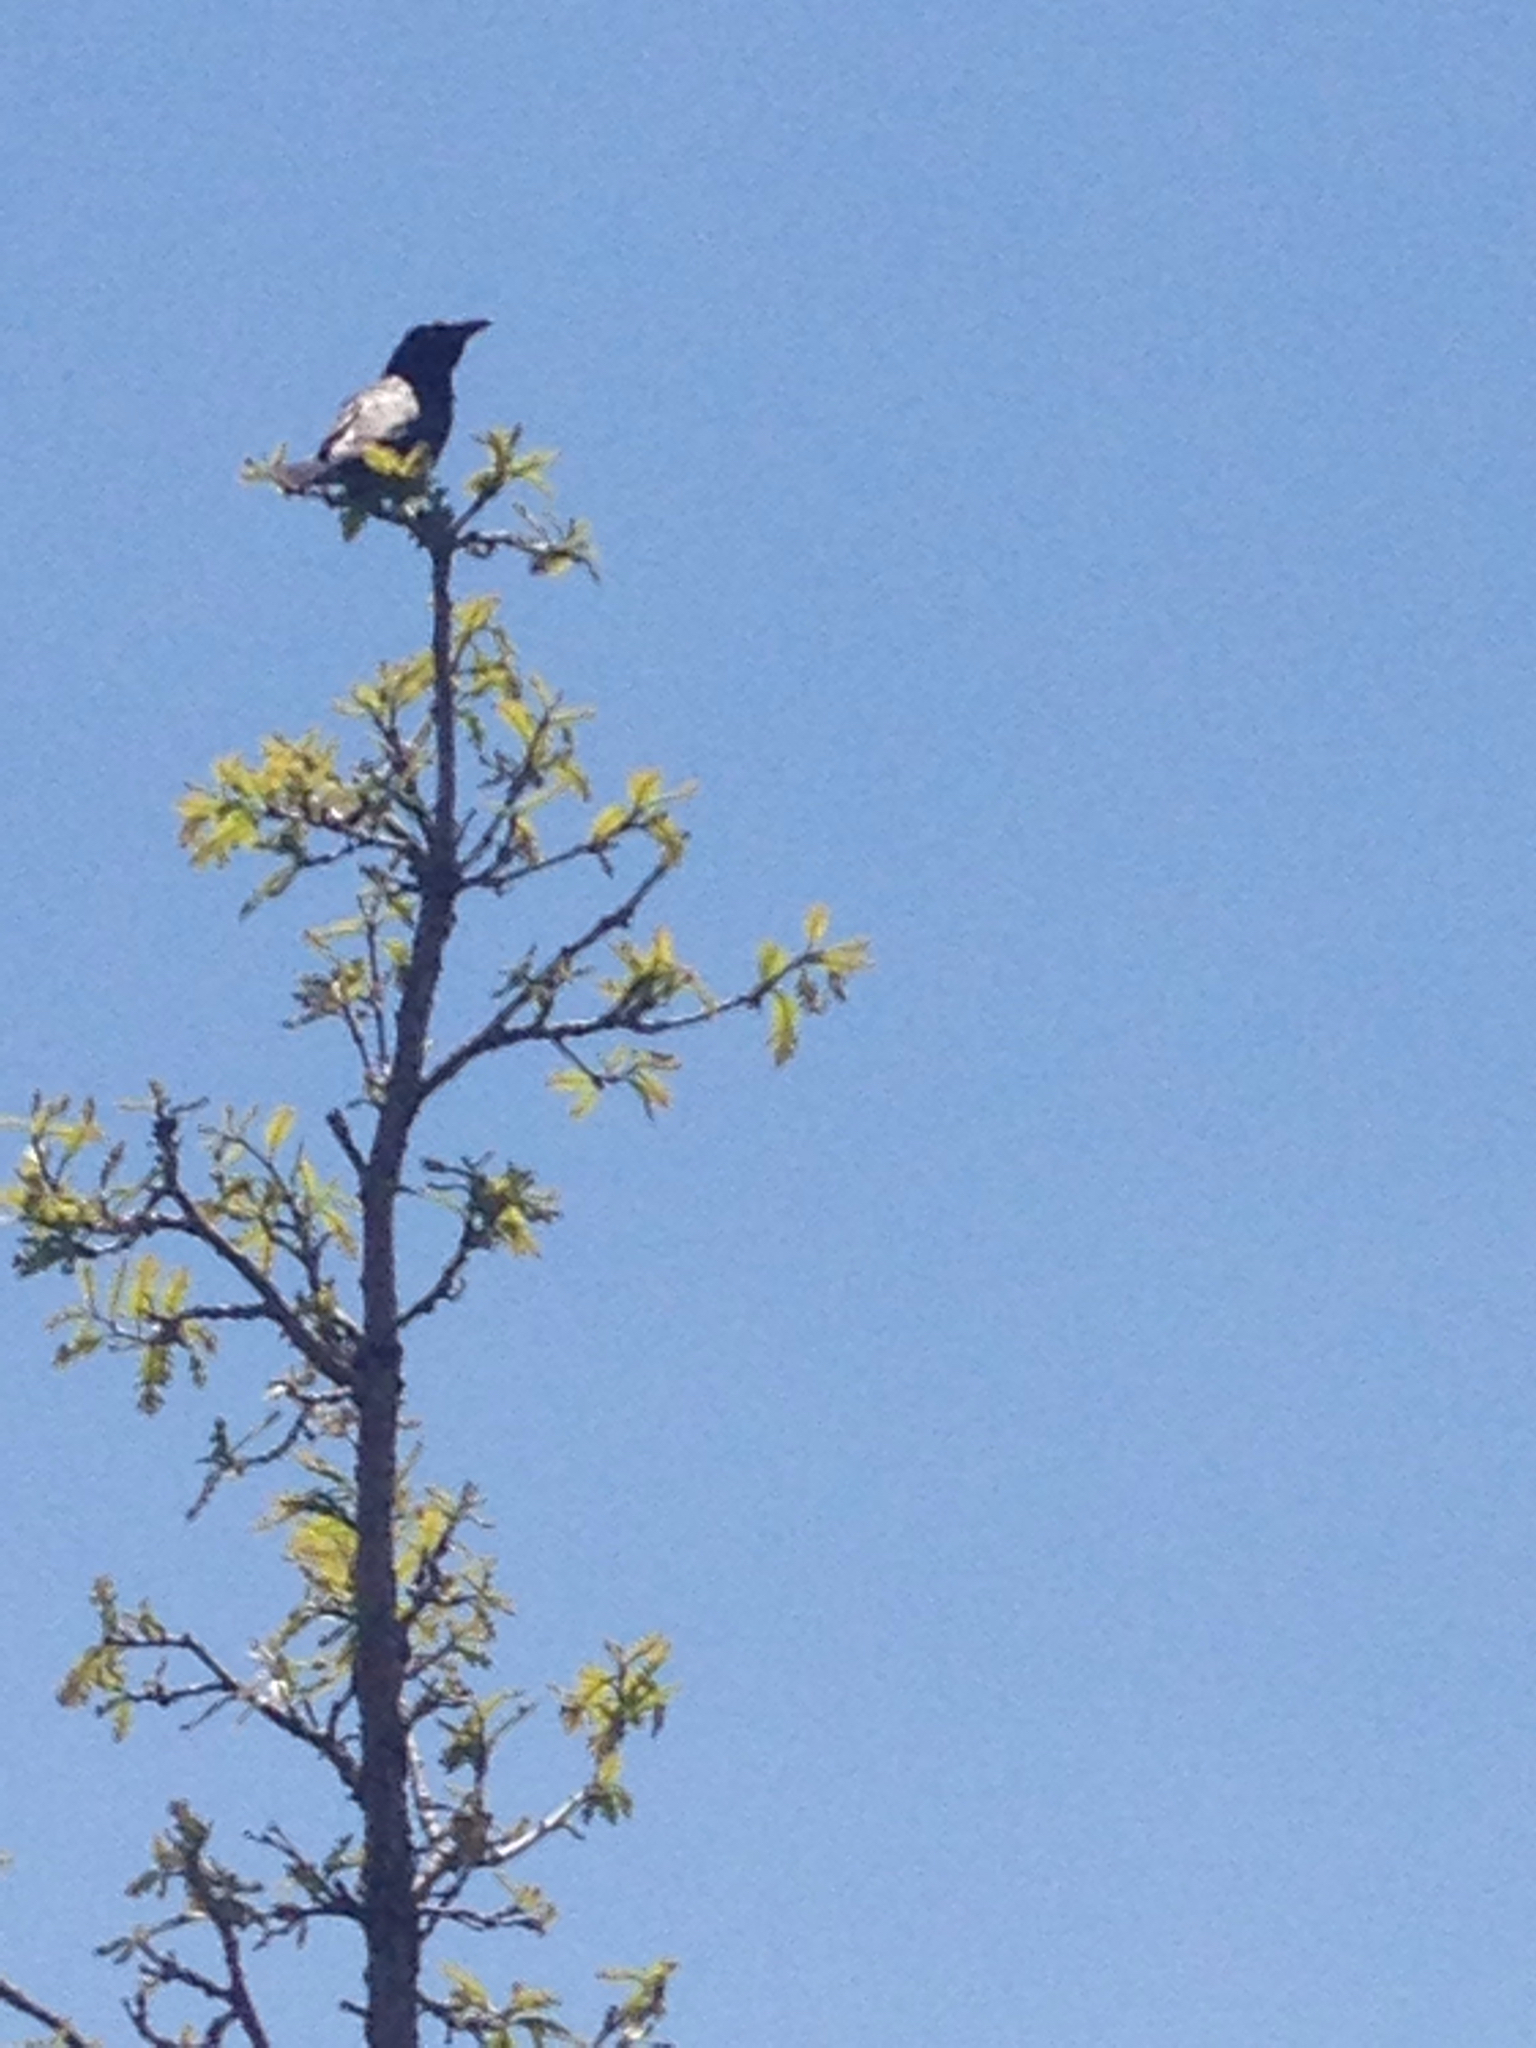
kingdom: Animalia
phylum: Chordata
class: Aves
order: Passeriformes
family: Corvidae
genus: Corvus
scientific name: Corvus brachyrhynchos
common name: American crow
